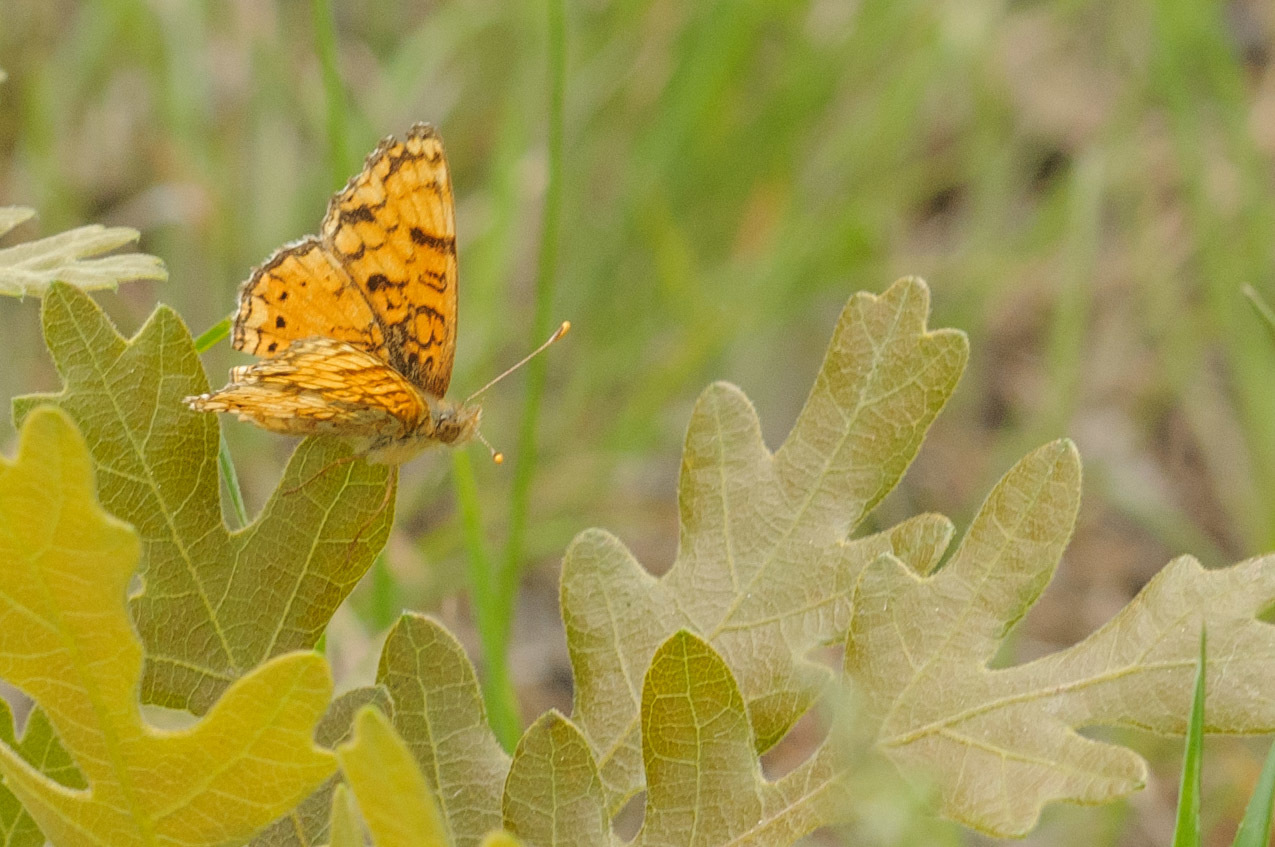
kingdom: Animalia
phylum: Arthropoda
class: Insecta
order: Lepidoptera
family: Nymphalidae
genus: Eresia
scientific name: Eresia aveyrona
